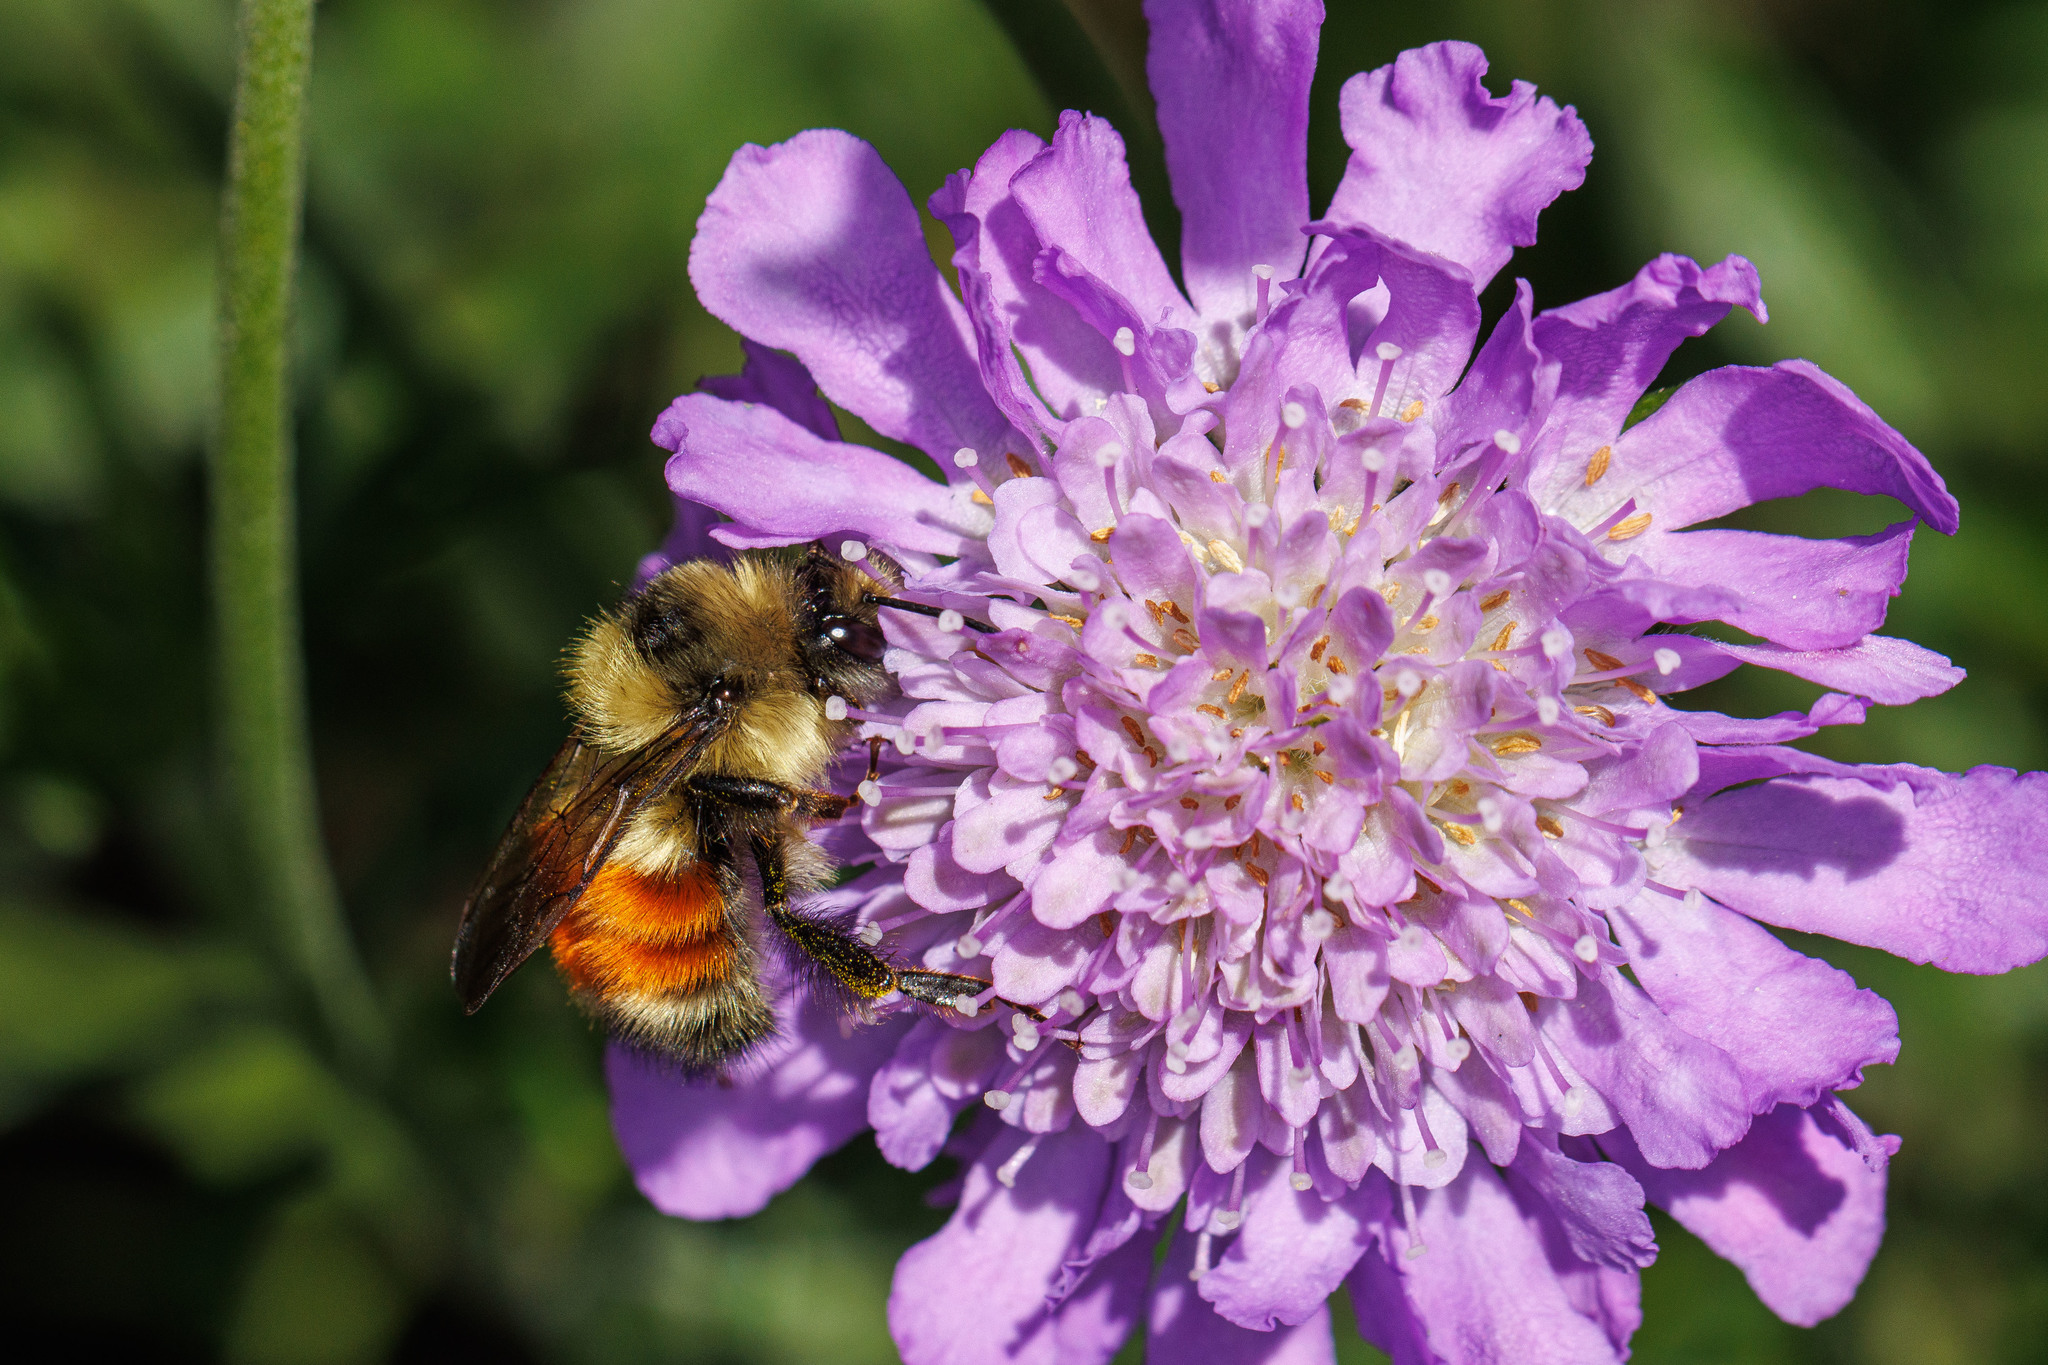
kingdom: Animalia
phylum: Arthropoda
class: Insecta
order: Hymenoptera
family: Apidae
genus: Bombus
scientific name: Bombus melanopygus
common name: Black tail bumble bee
